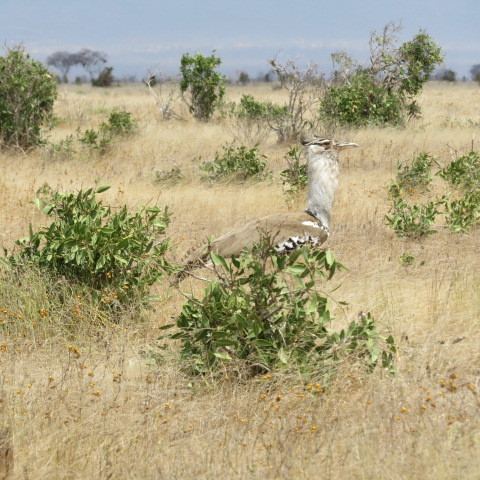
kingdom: Animalia
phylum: Chordata
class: Aves
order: Otidiformes
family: Otididae
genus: Ardeotis
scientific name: Ardeotis kori
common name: Kori bustard
